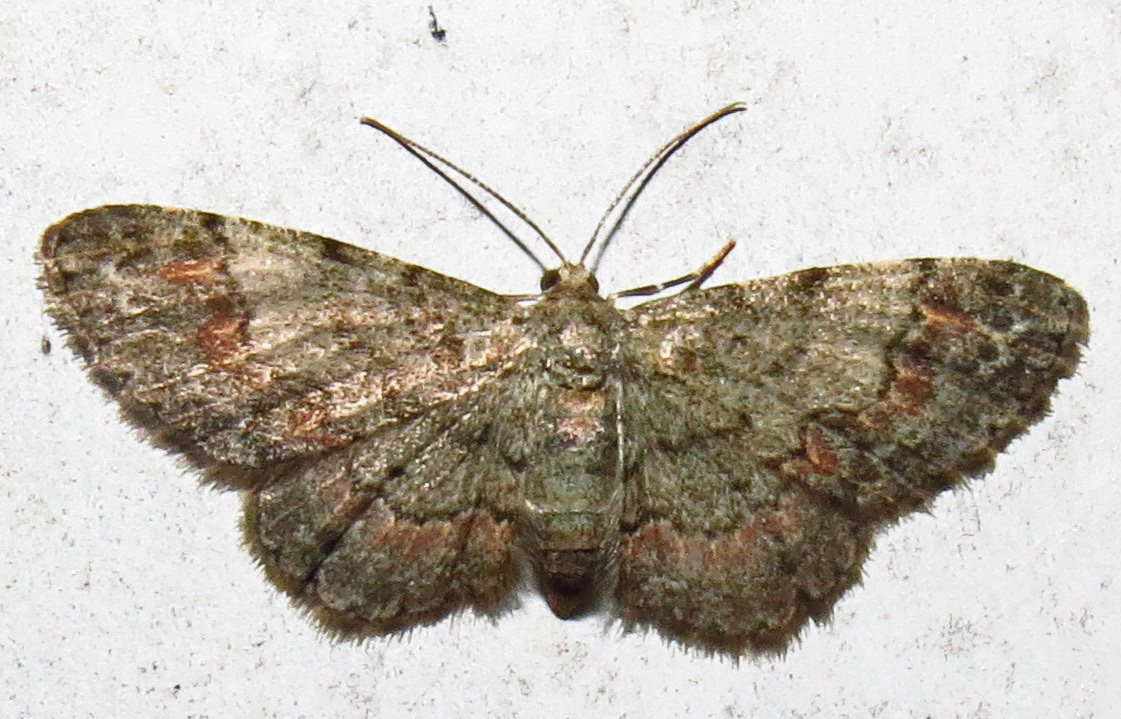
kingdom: Animalia
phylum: Arthropoda
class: Insecta
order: Lepidoptera
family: Geometridae
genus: Glenoides
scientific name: Glenoides texanaria
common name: Texas gray
